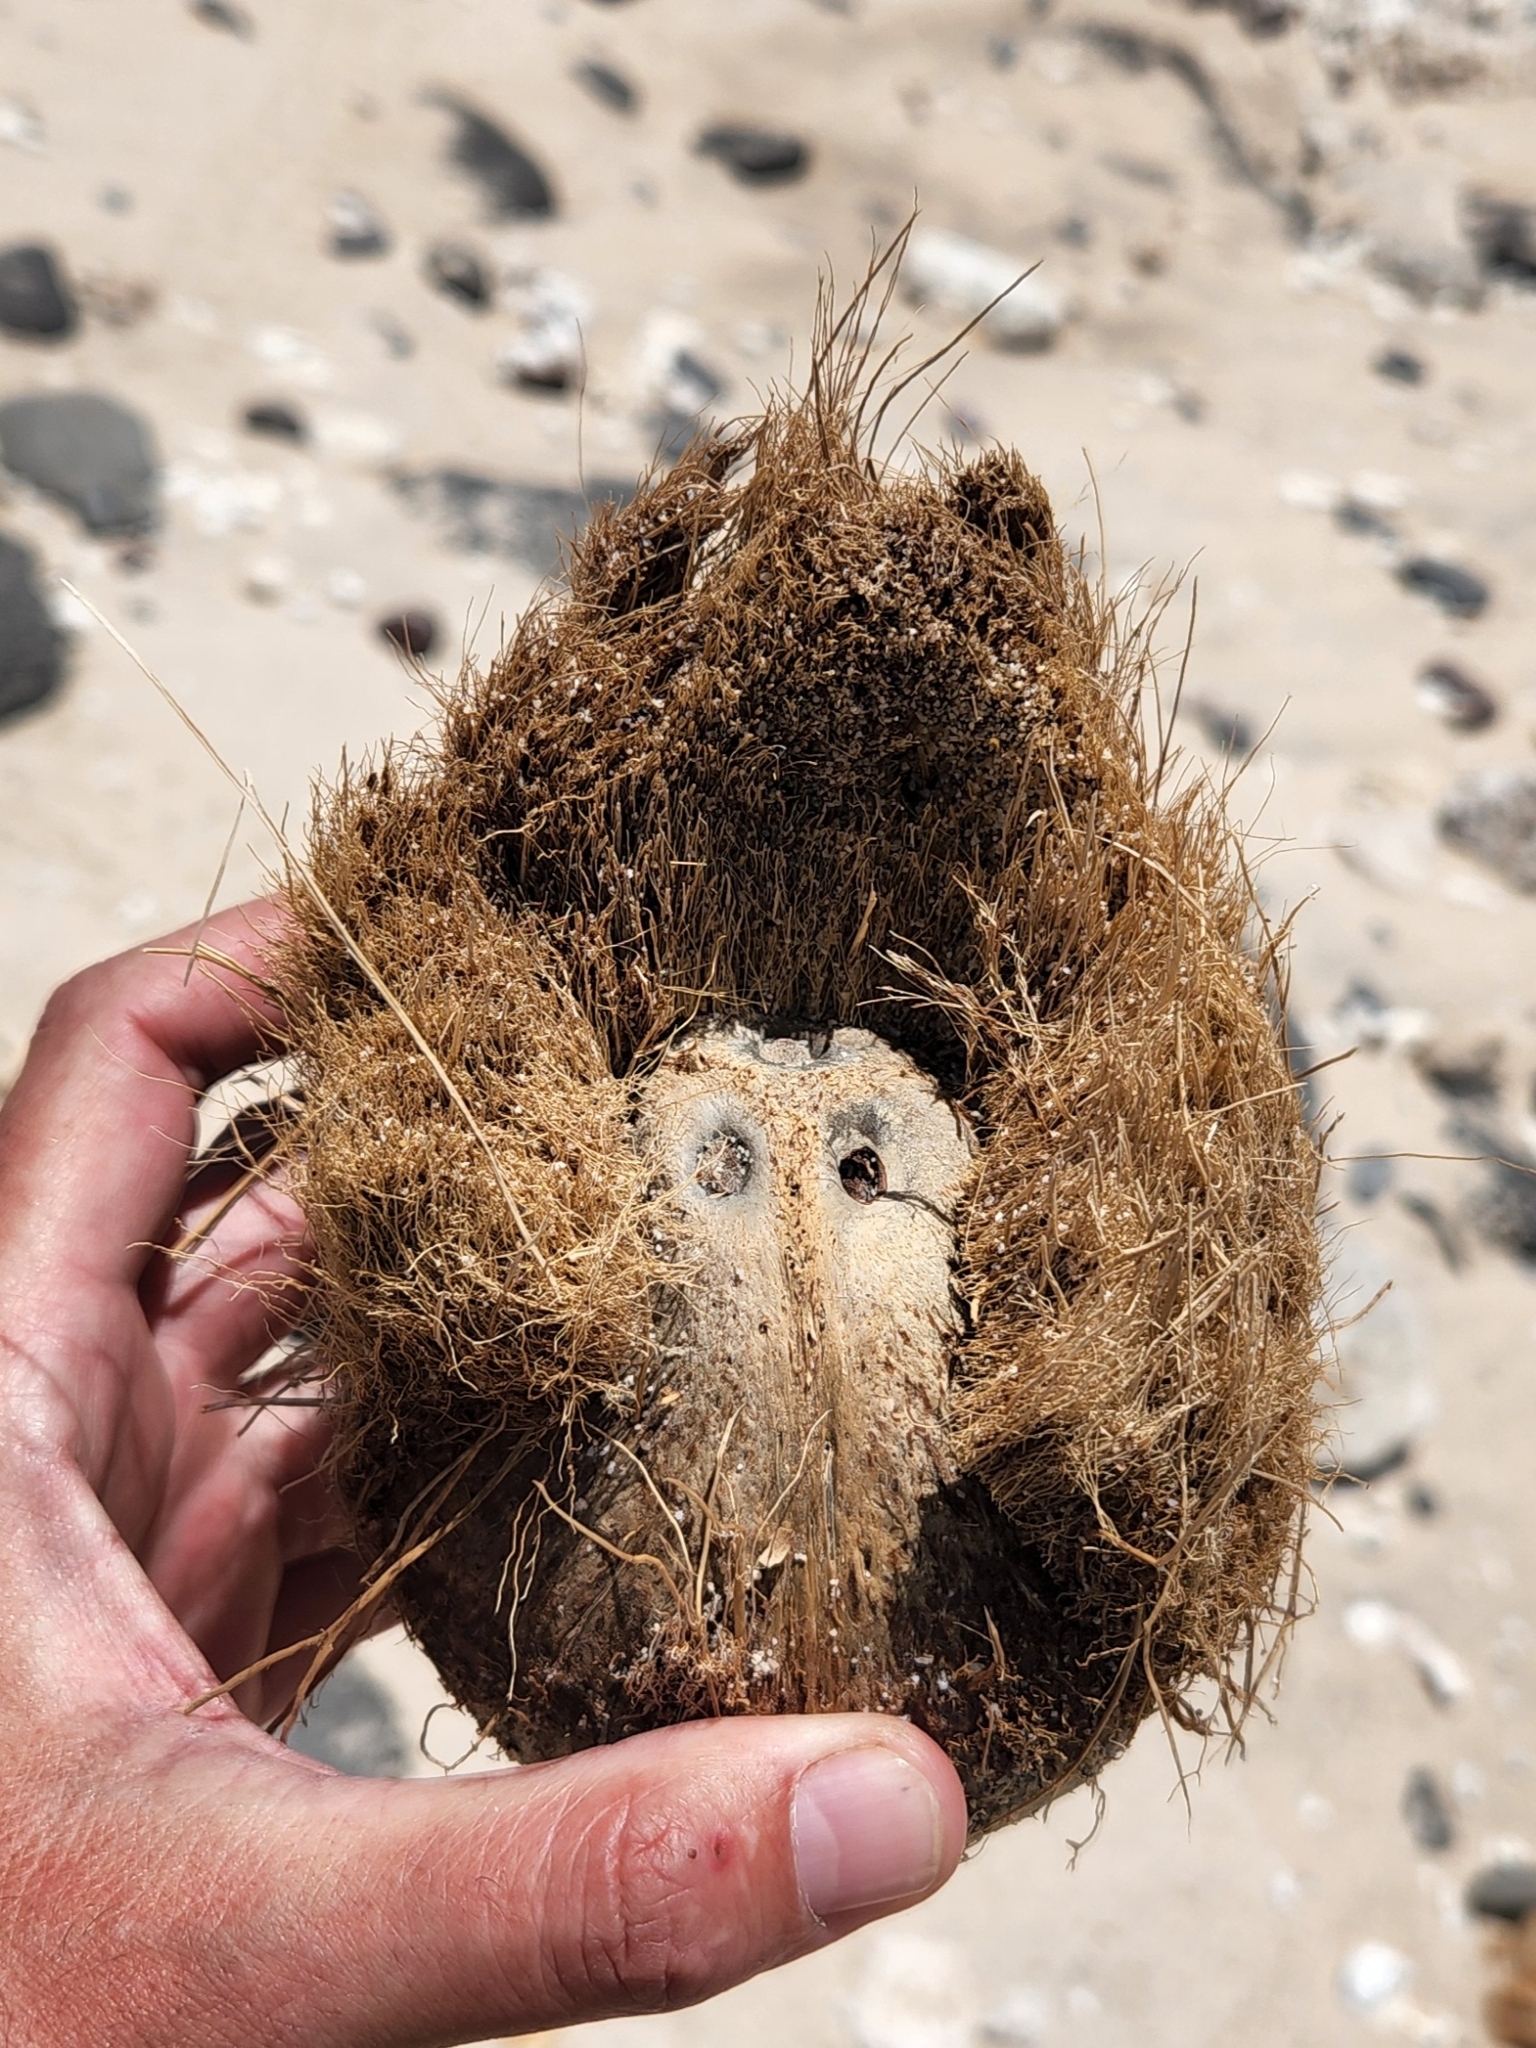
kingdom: Plantae
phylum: Tracheophyta
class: Liliopsida
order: Arecales
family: Arecaceae
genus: Cocos
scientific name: Cocos nucifera
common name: Coconut palm
